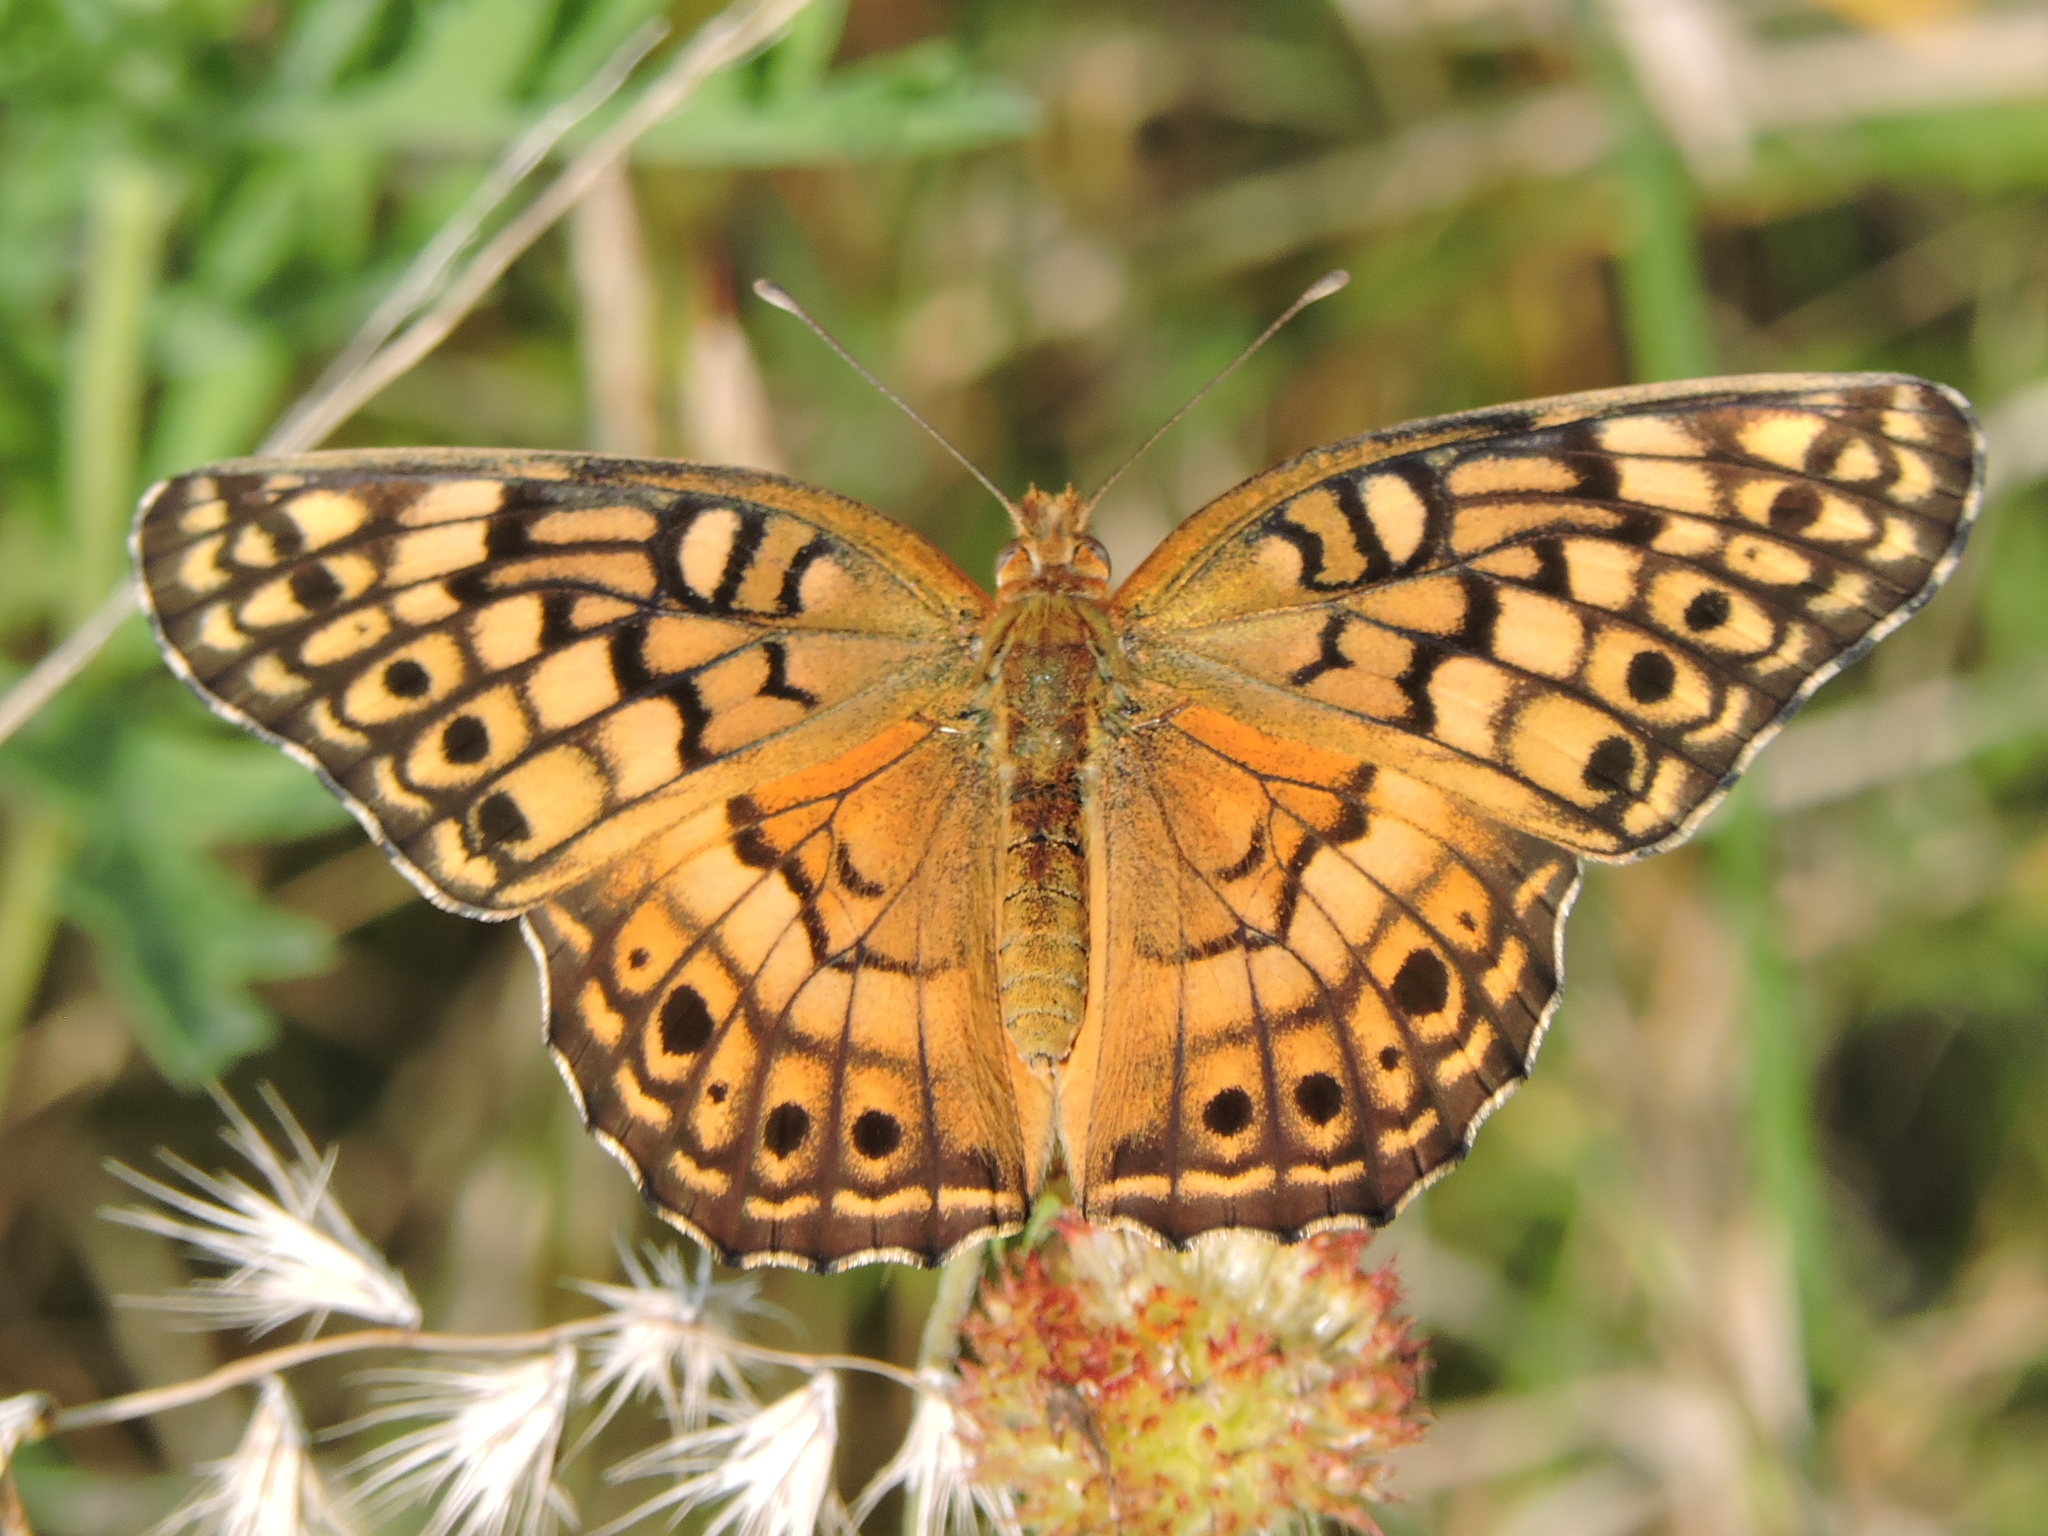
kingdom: Animalia
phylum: Arthropoda
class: Insecta
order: Lepidoptera
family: Nymphalidae
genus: Euptoieta
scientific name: Euptoieta claudia
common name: Variegated fritillary
